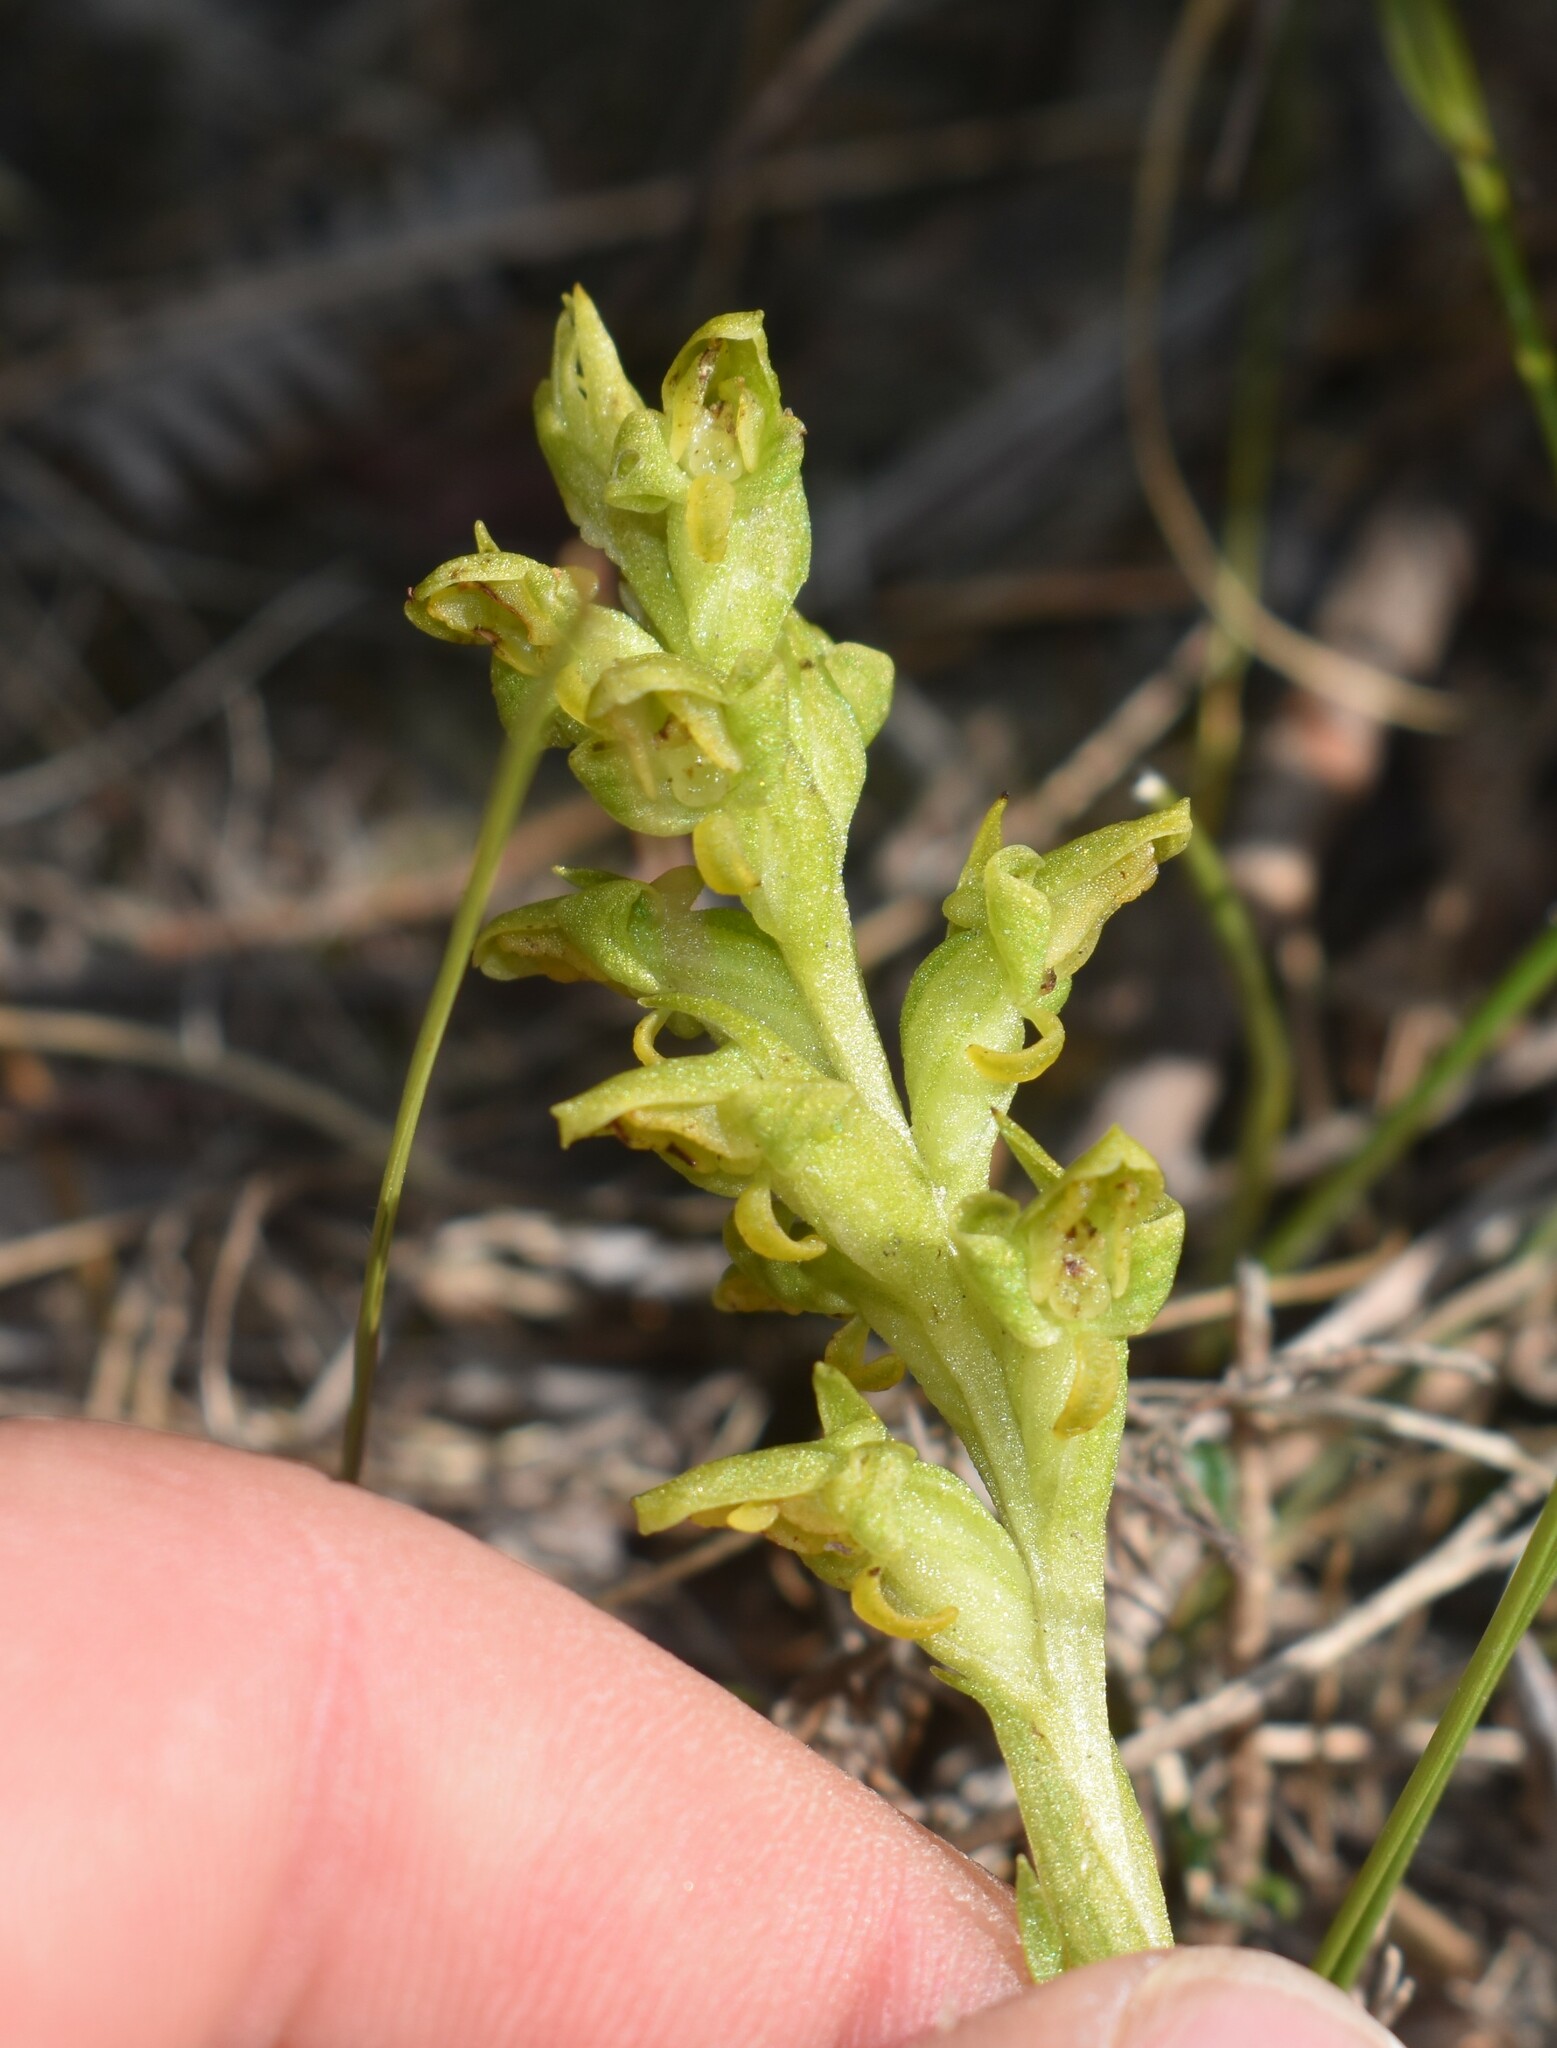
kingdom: Plantae
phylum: Tracheophyta
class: Liliopsida
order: Asparagales
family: Orchidaceae
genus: Disa
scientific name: Disa cylindrica
